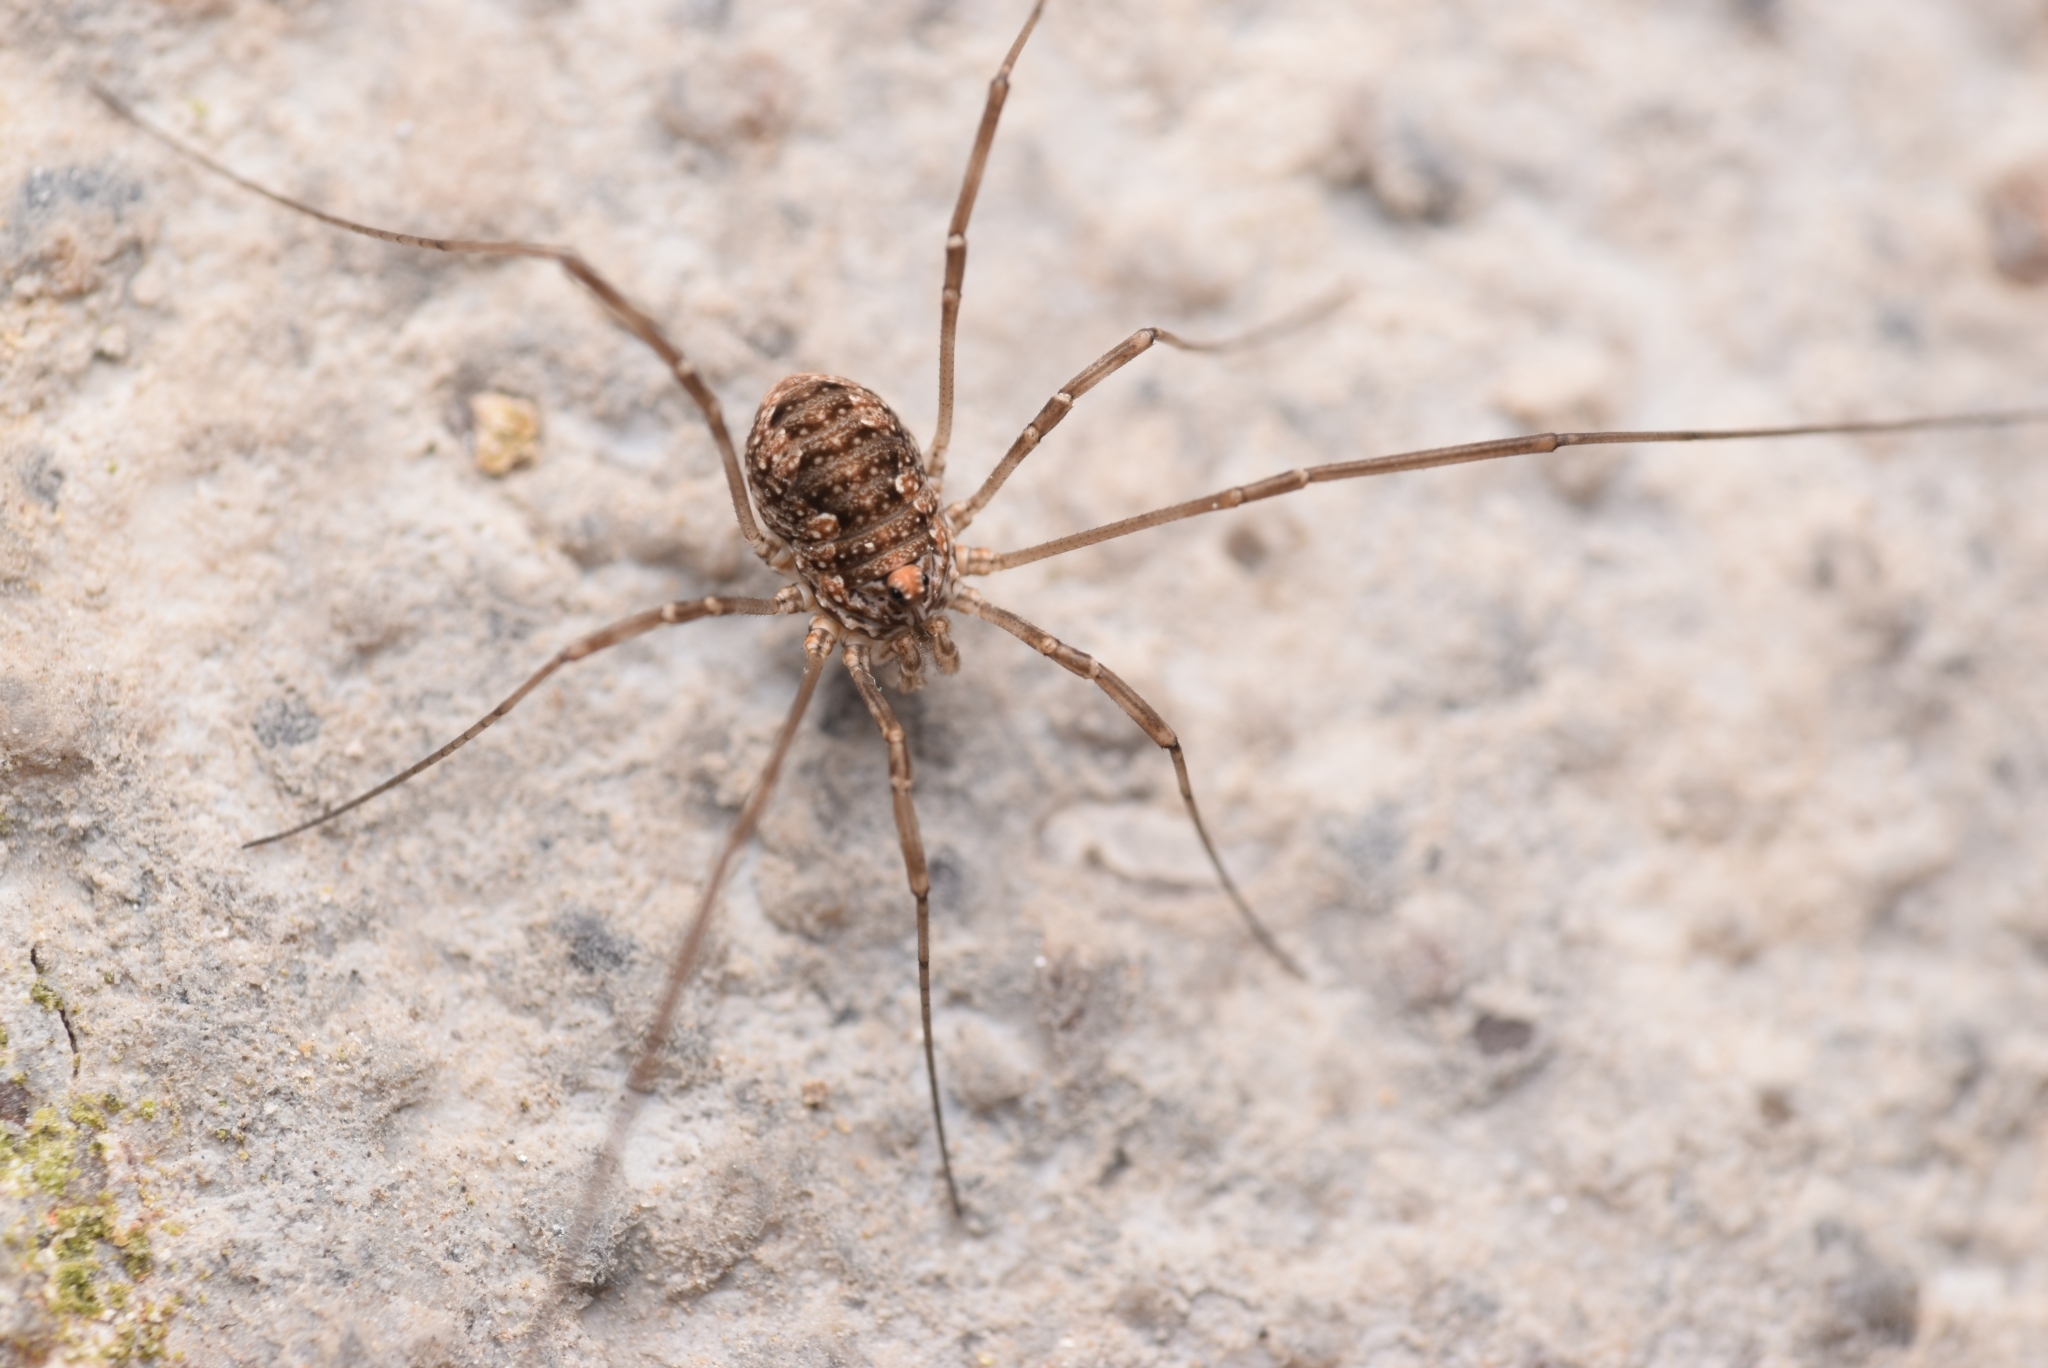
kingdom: Animalia
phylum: Arthropoda
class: Arachnida
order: Opiliones
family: Phalangiidae
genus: Phalangium
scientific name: Phalangium opilio
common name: Daddy longleg
